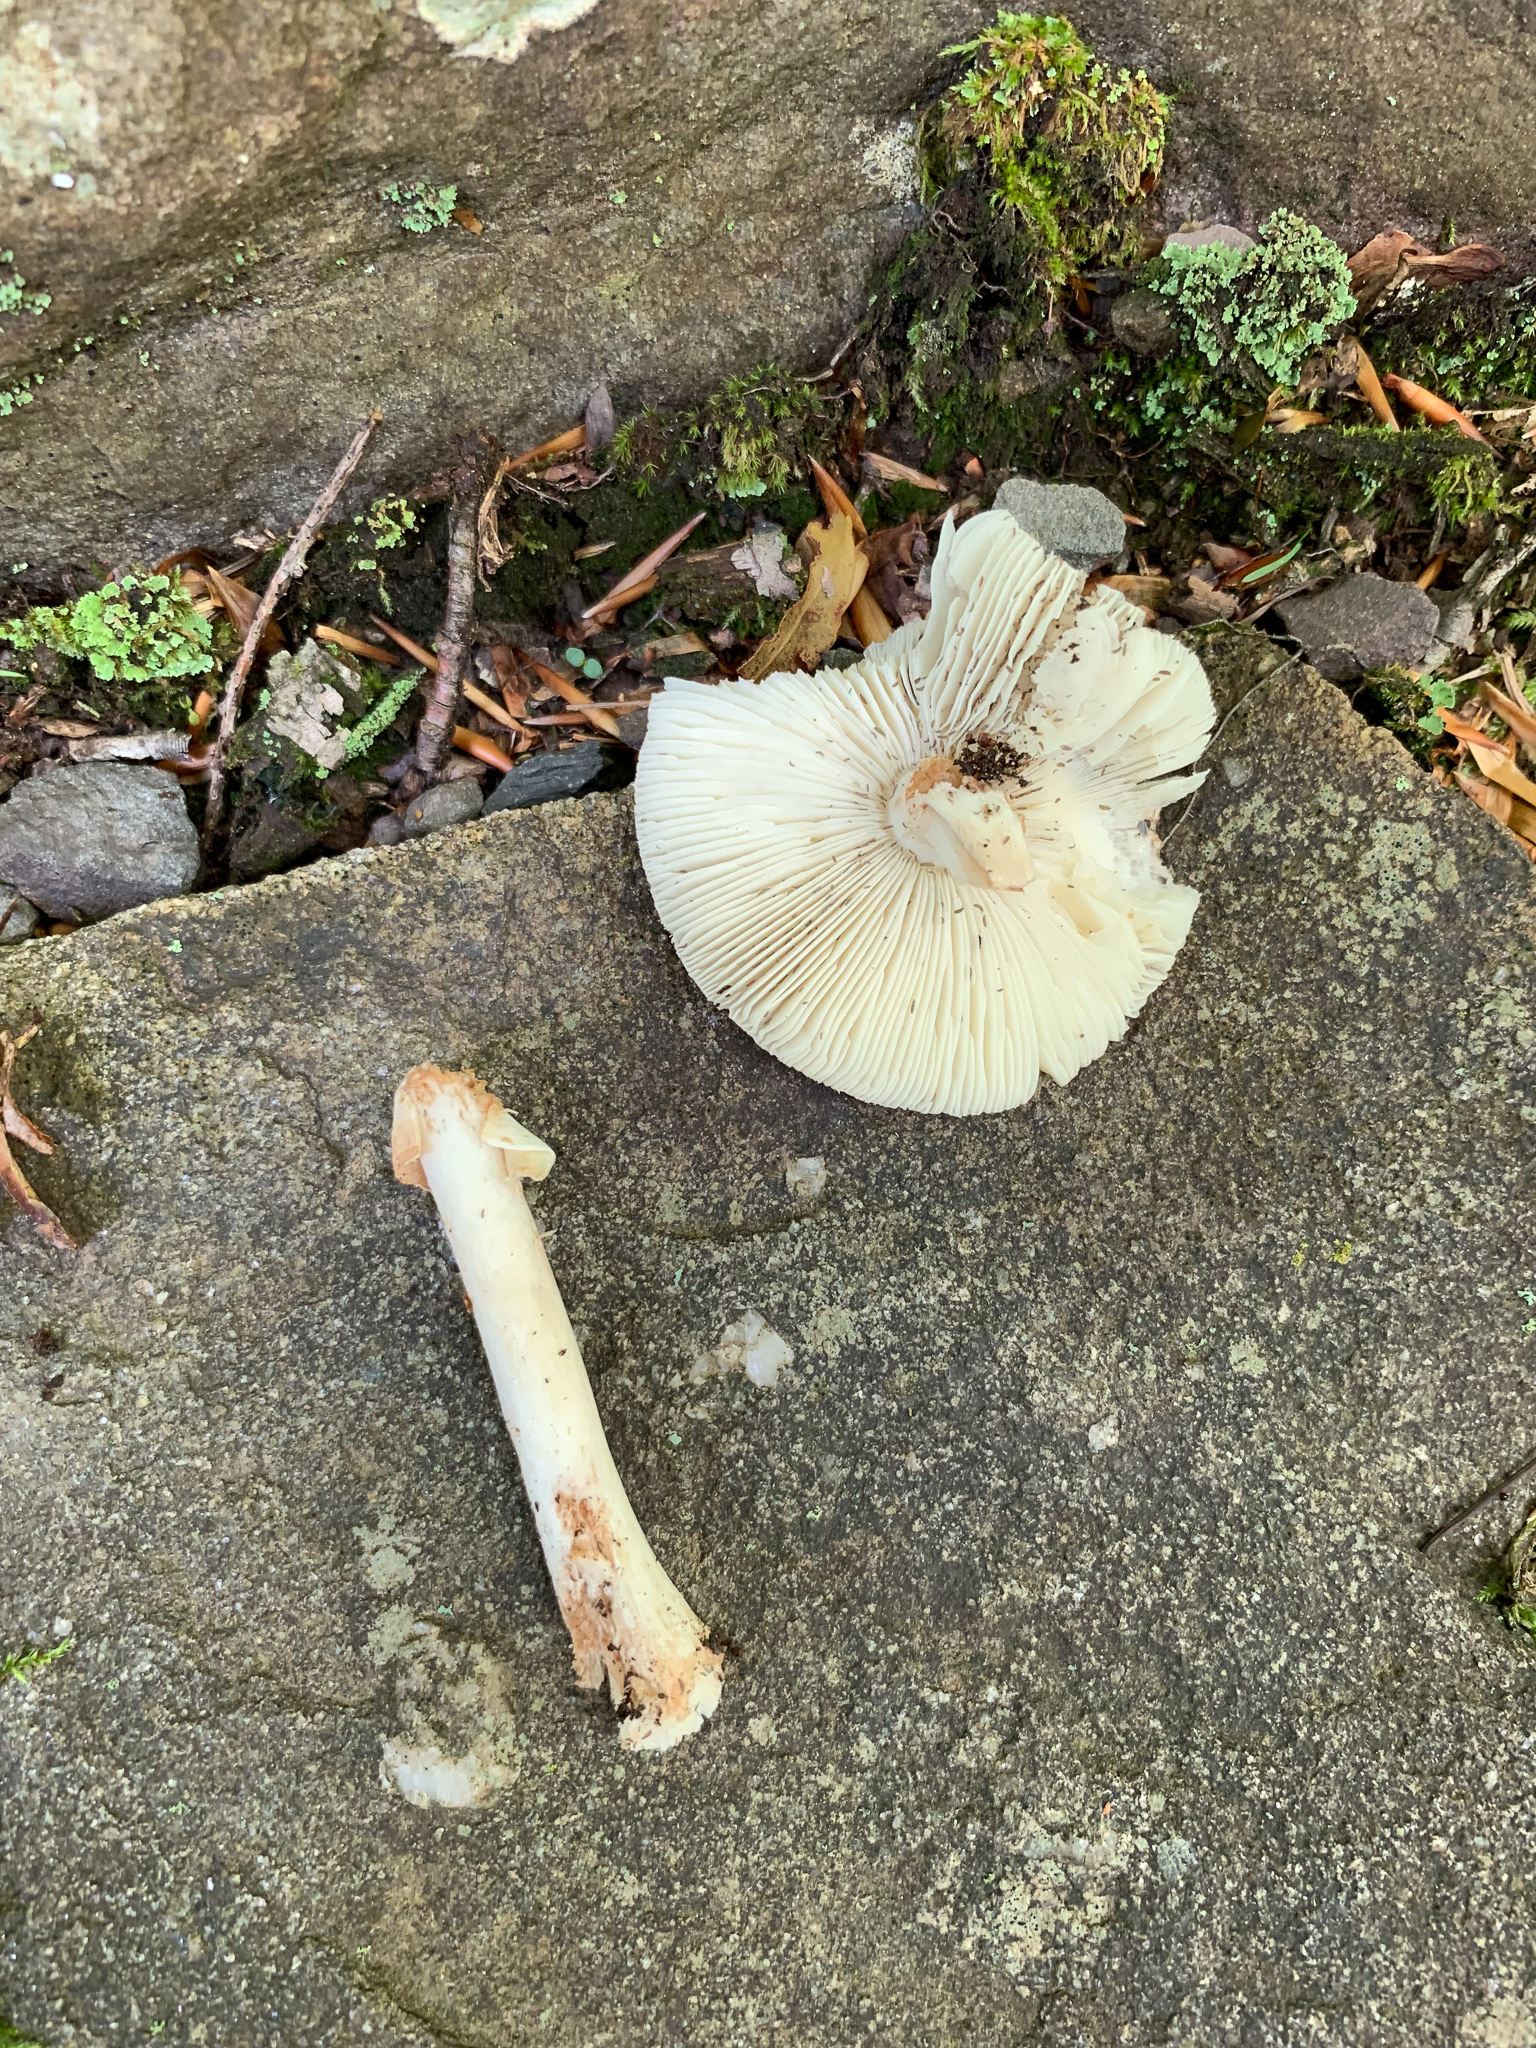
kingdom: Fungi
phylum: Basidiomycota
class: Agaricomycetes
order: Agaricales
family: Amanitaceae
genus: Amanita
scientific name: Amanita brunnescens
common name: Brown american star-footed amanita
